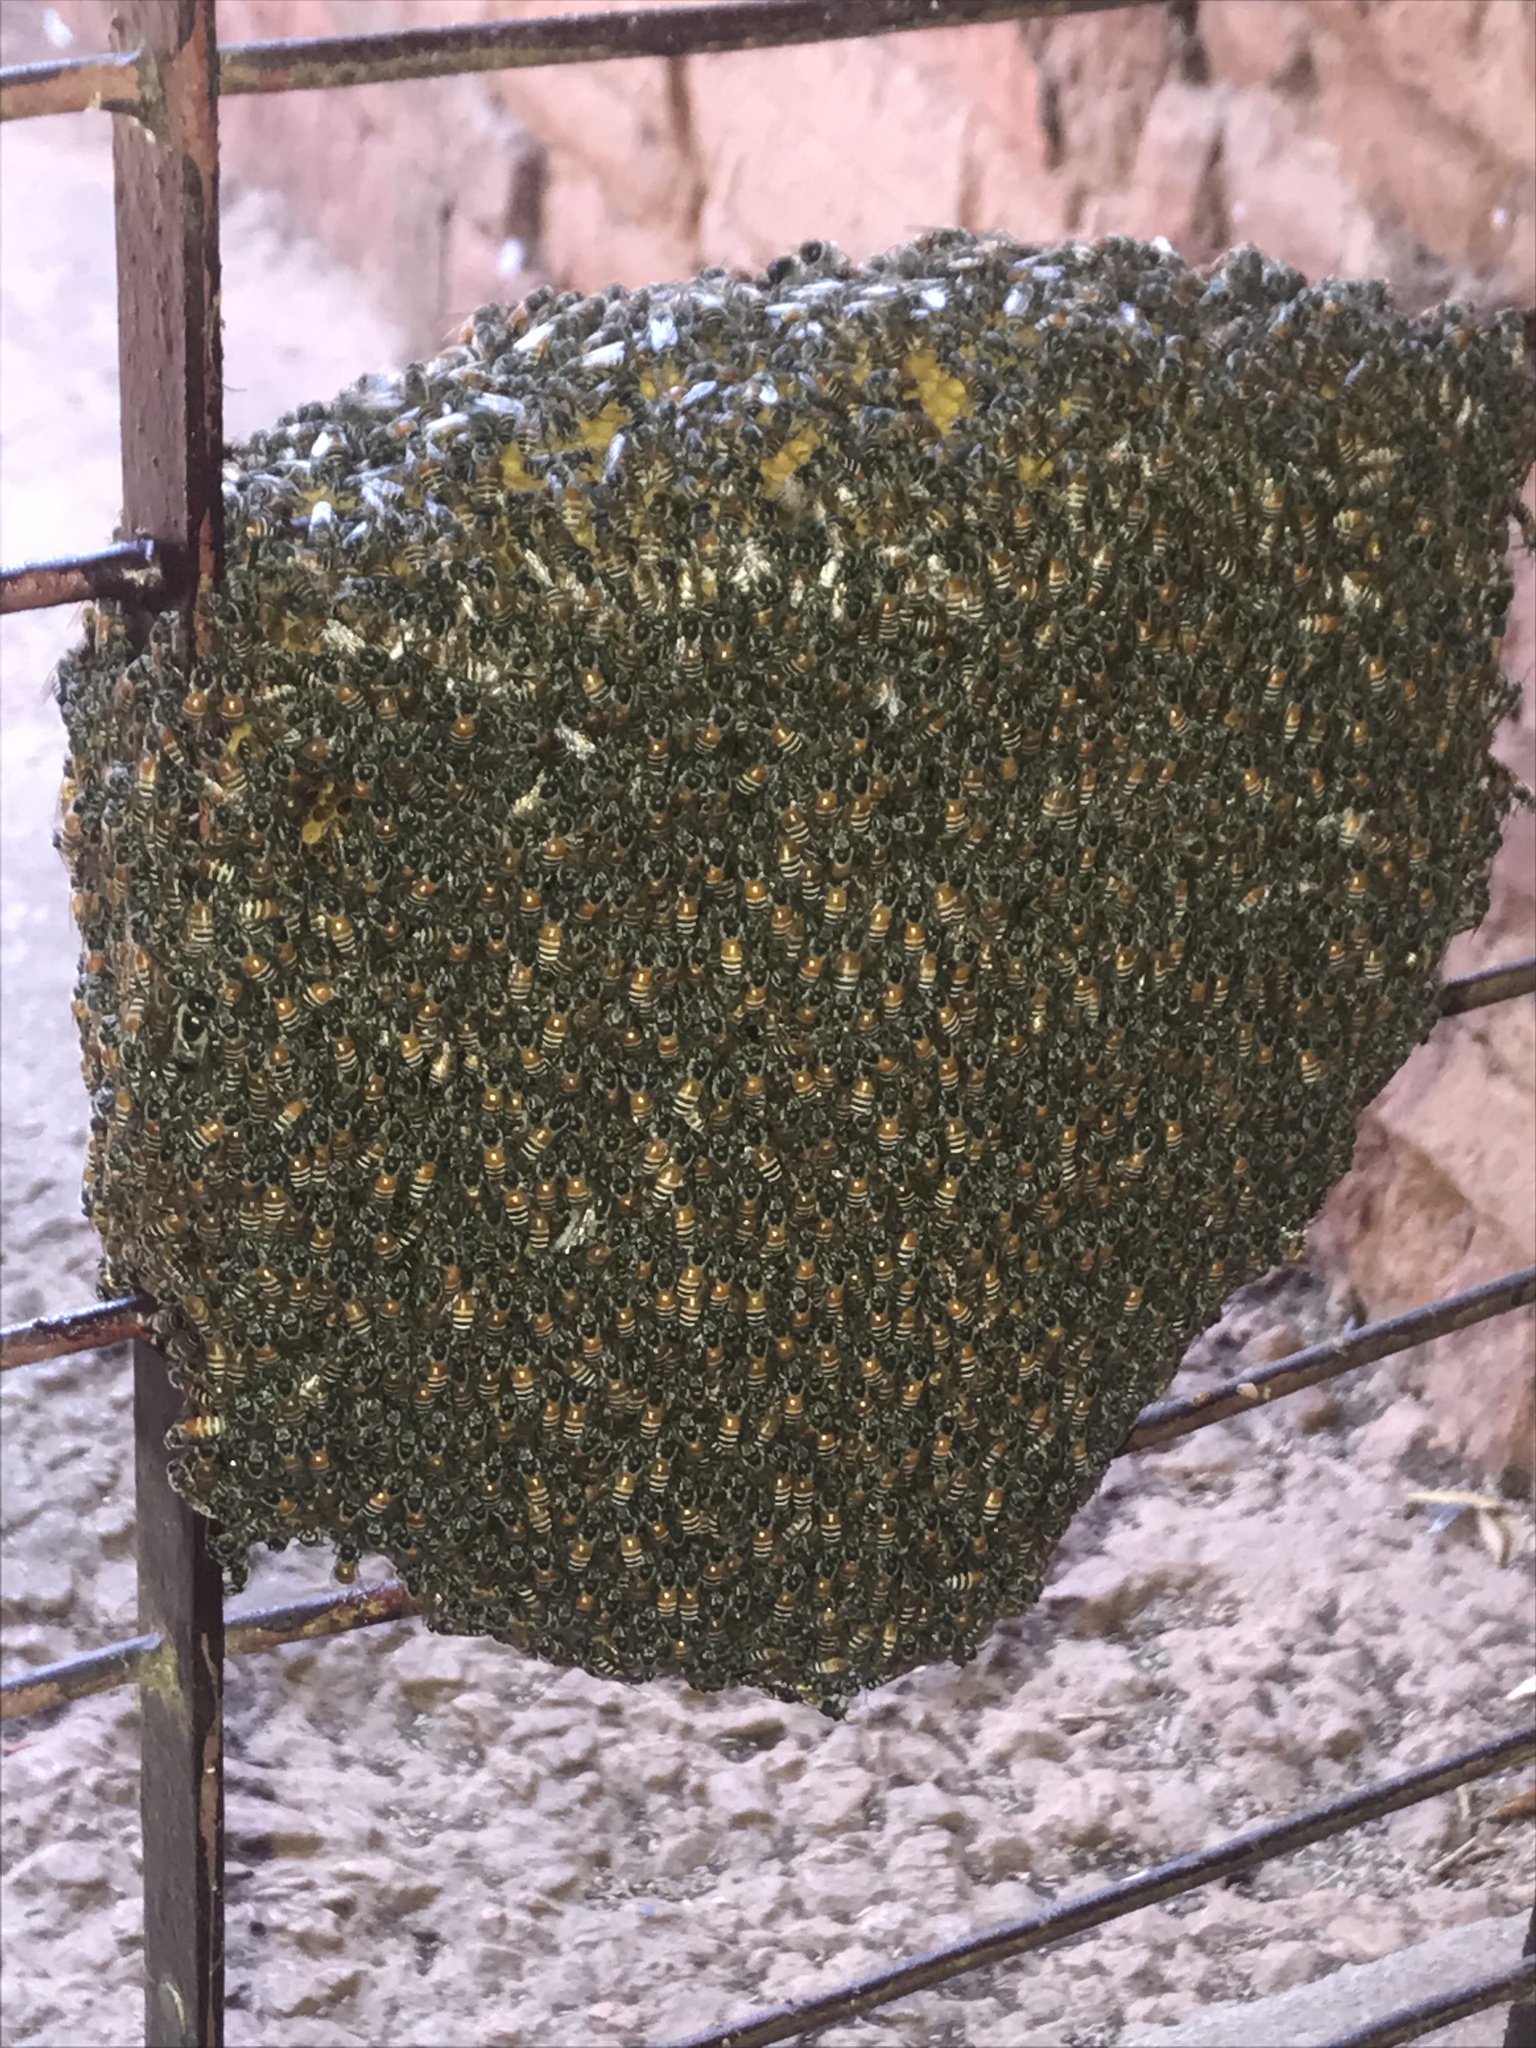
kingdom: Animalia
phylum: Arthropoda
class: Insecta
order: Hymenoptera
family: Apidae
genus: Apis
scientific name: Apis florea
